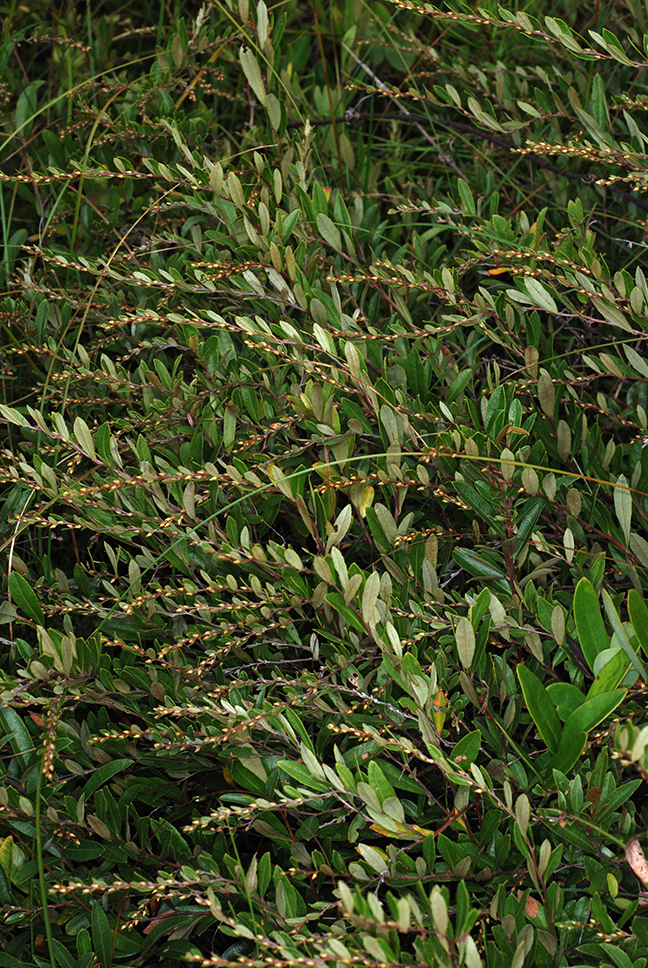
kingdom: Plantae
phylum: Tracheophyta
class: Magnoliopsida
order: Ericales
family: Ericaceae
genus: Chamaedaphne
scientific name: Chamaedaphne calyculata
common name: Leatherleaf
